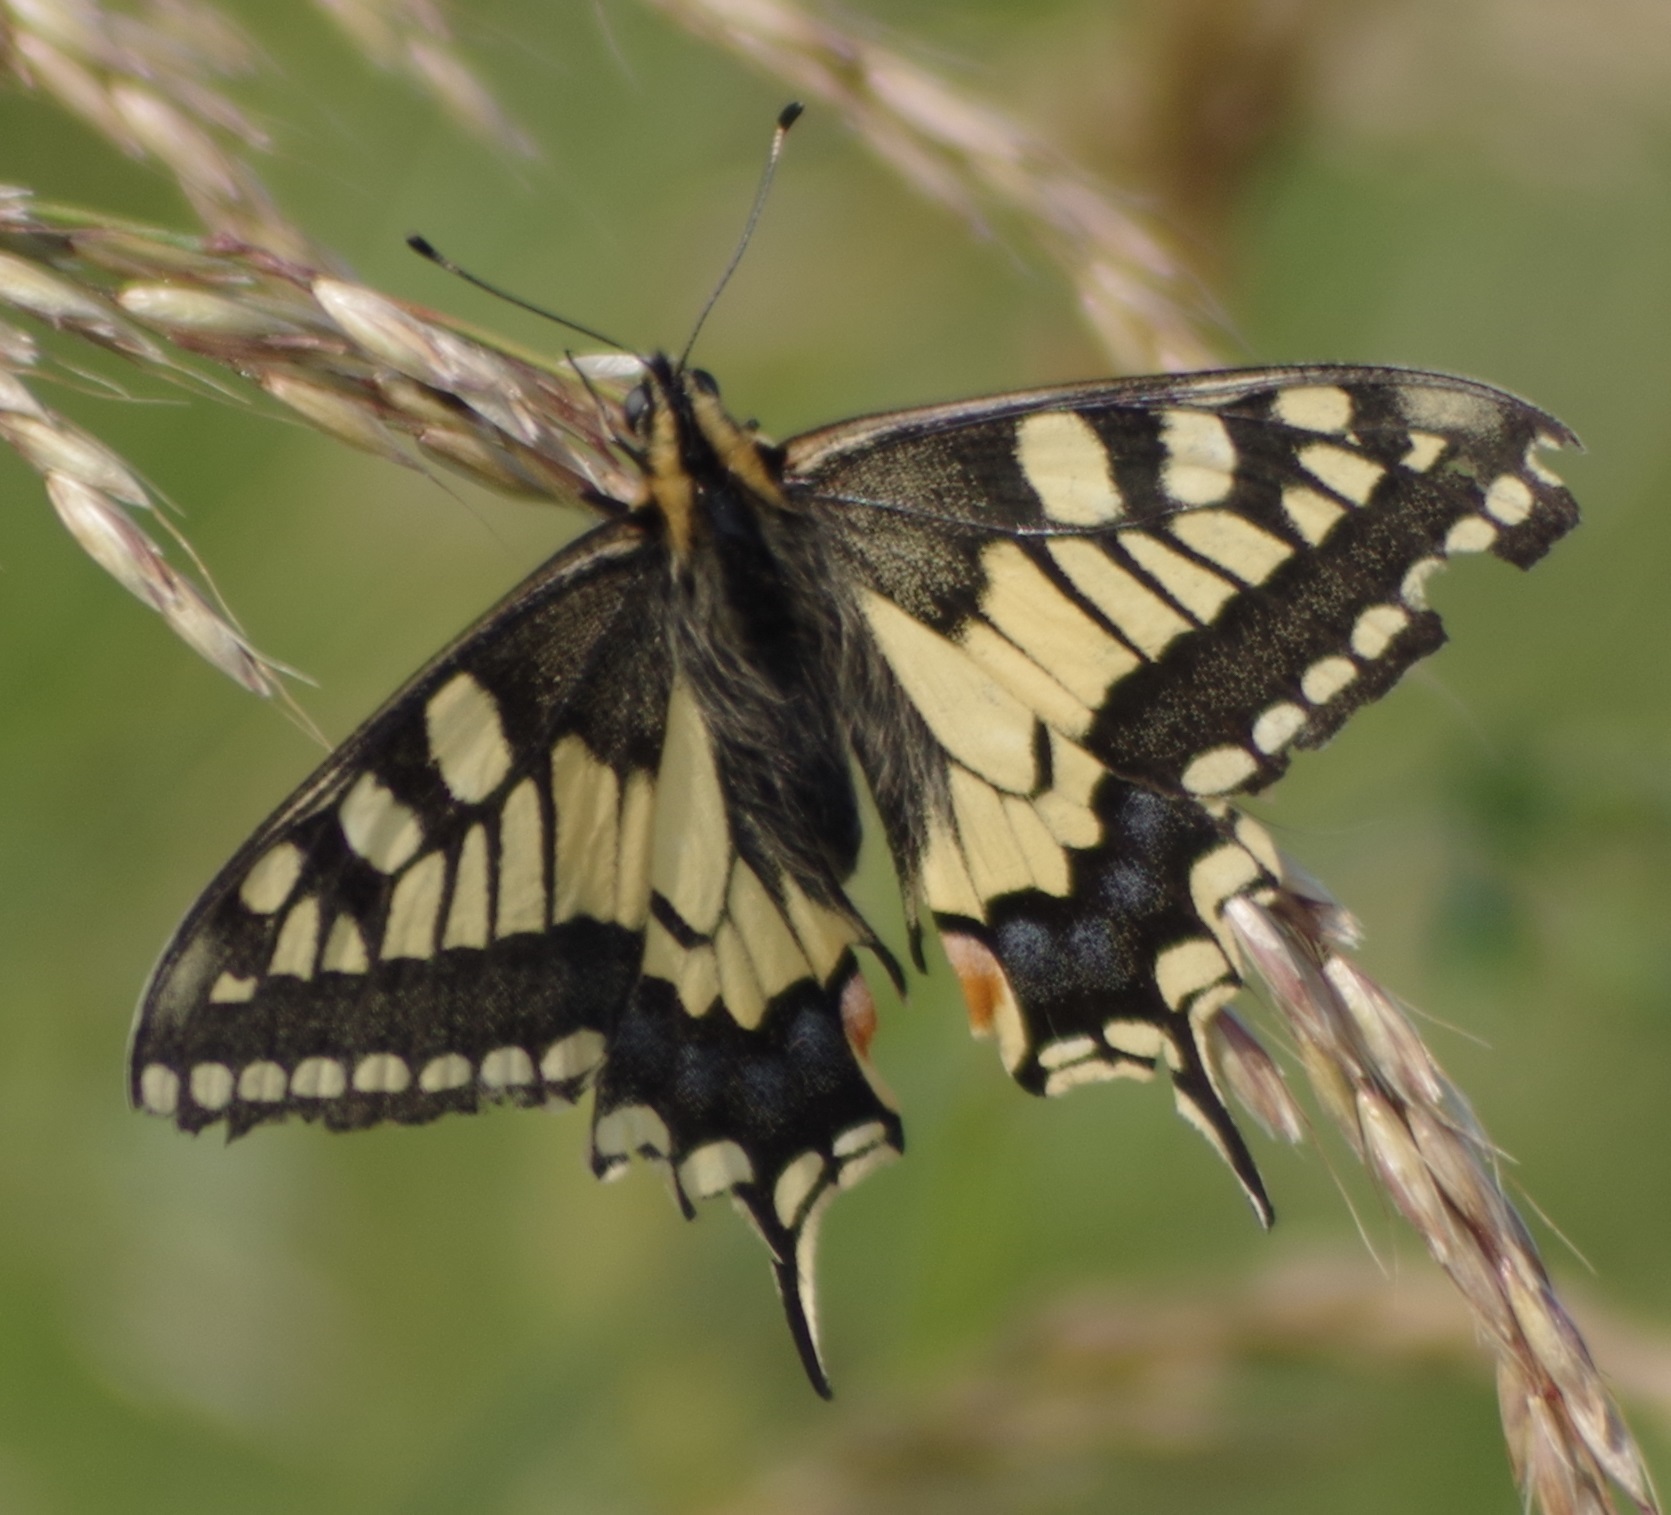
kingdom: Animalia
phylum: Arthropoda
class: Insecta
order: Lepidoptera
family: Papilionidae
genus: Papilio
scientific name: Papilio machaon
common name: Swallowtail
